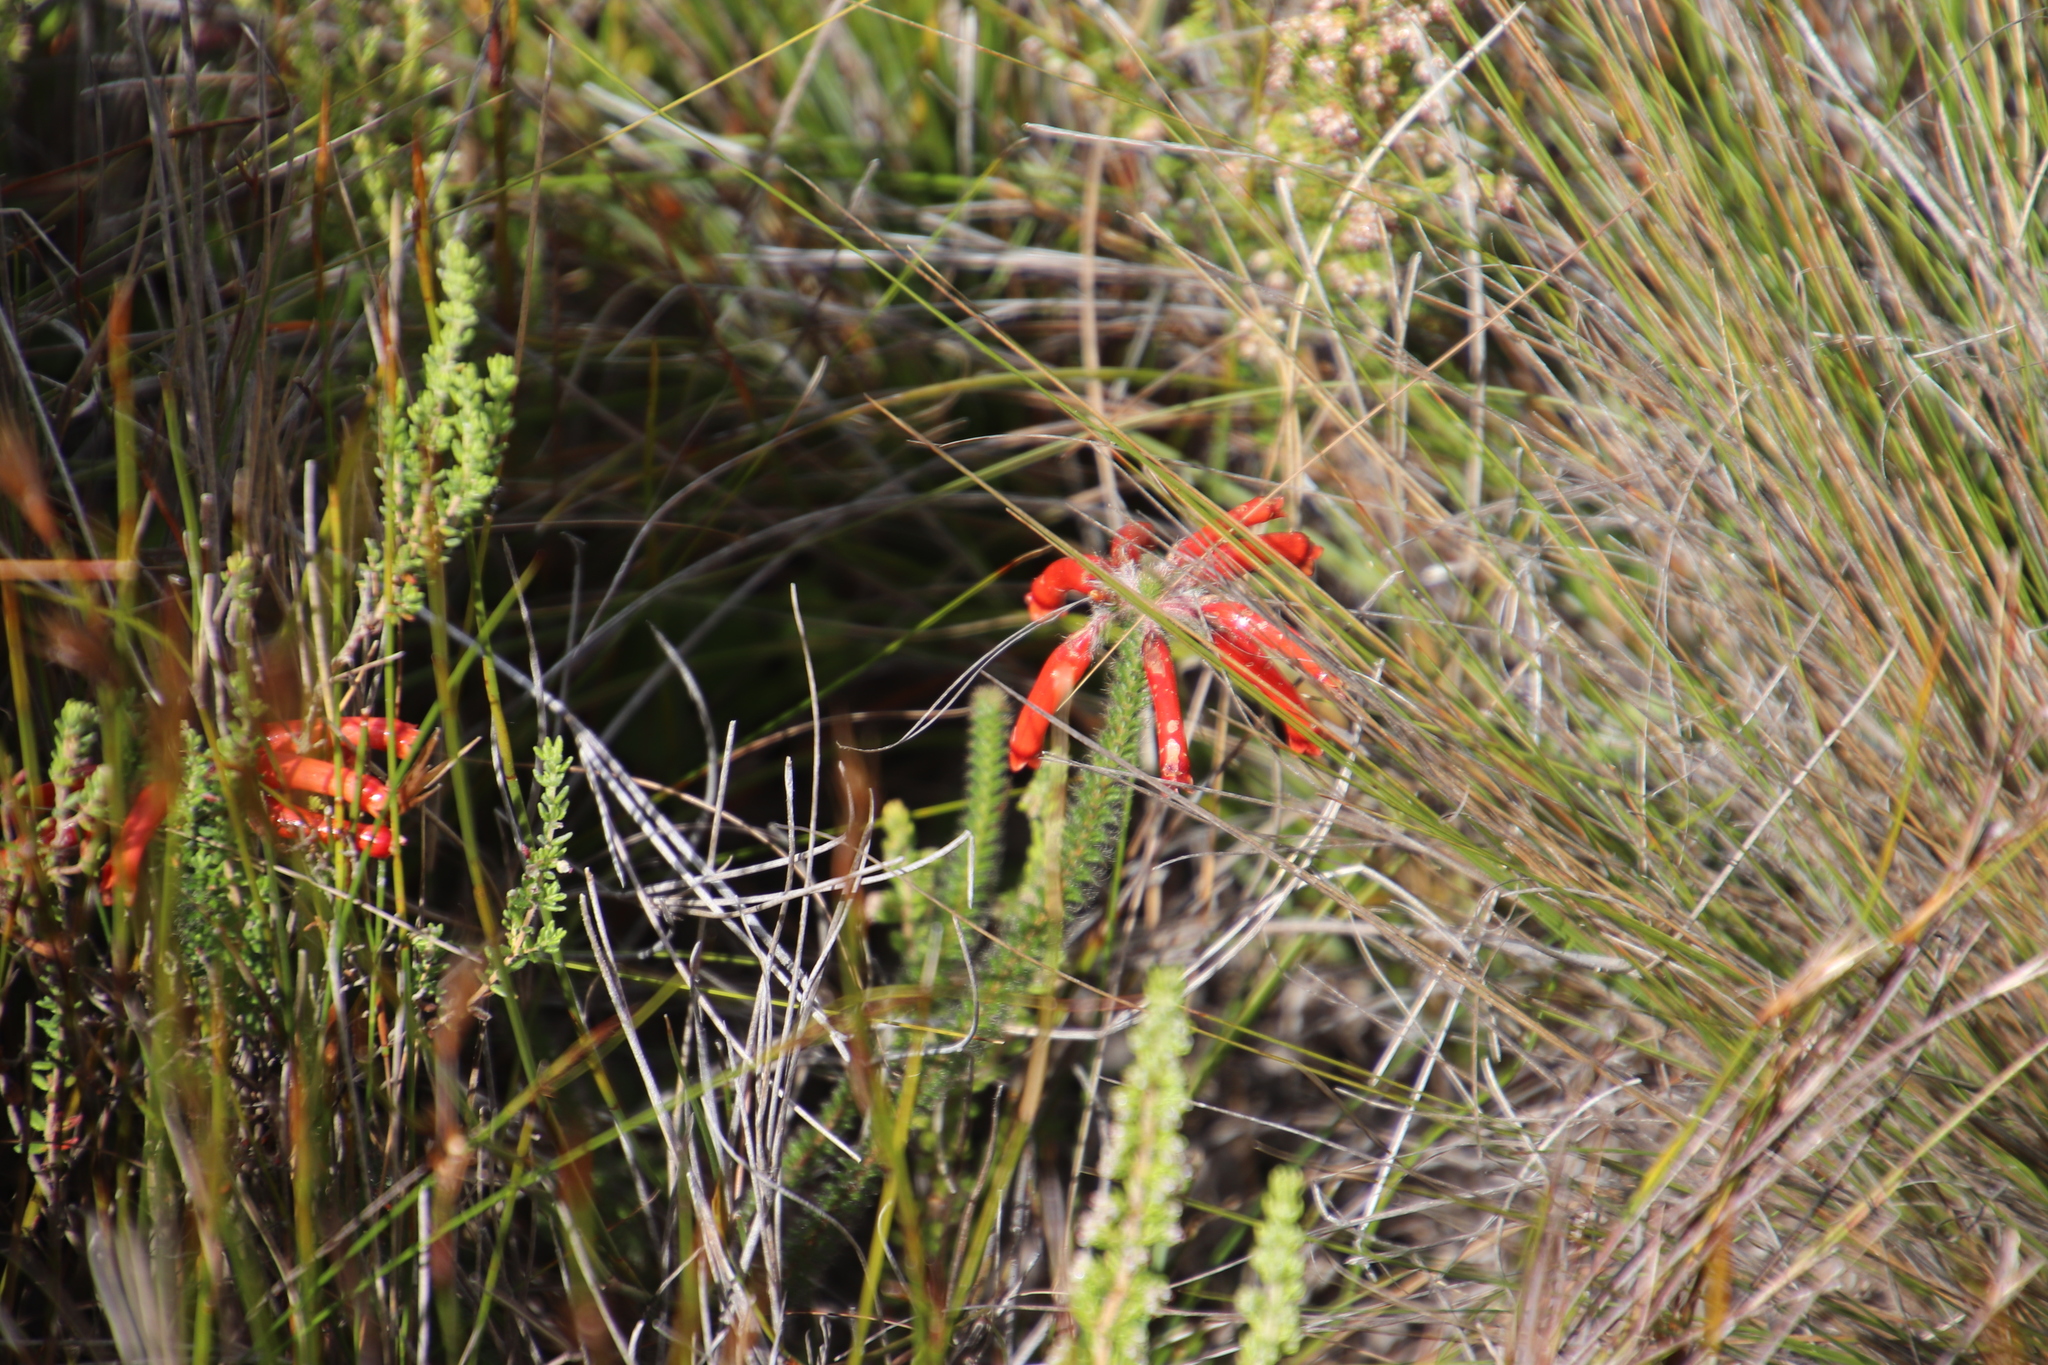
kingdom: Plantae
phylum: Tracheophyta
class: Magnoliopsida
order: Ericales
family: Ericaceae
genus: Erica
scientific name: Erica massonii
